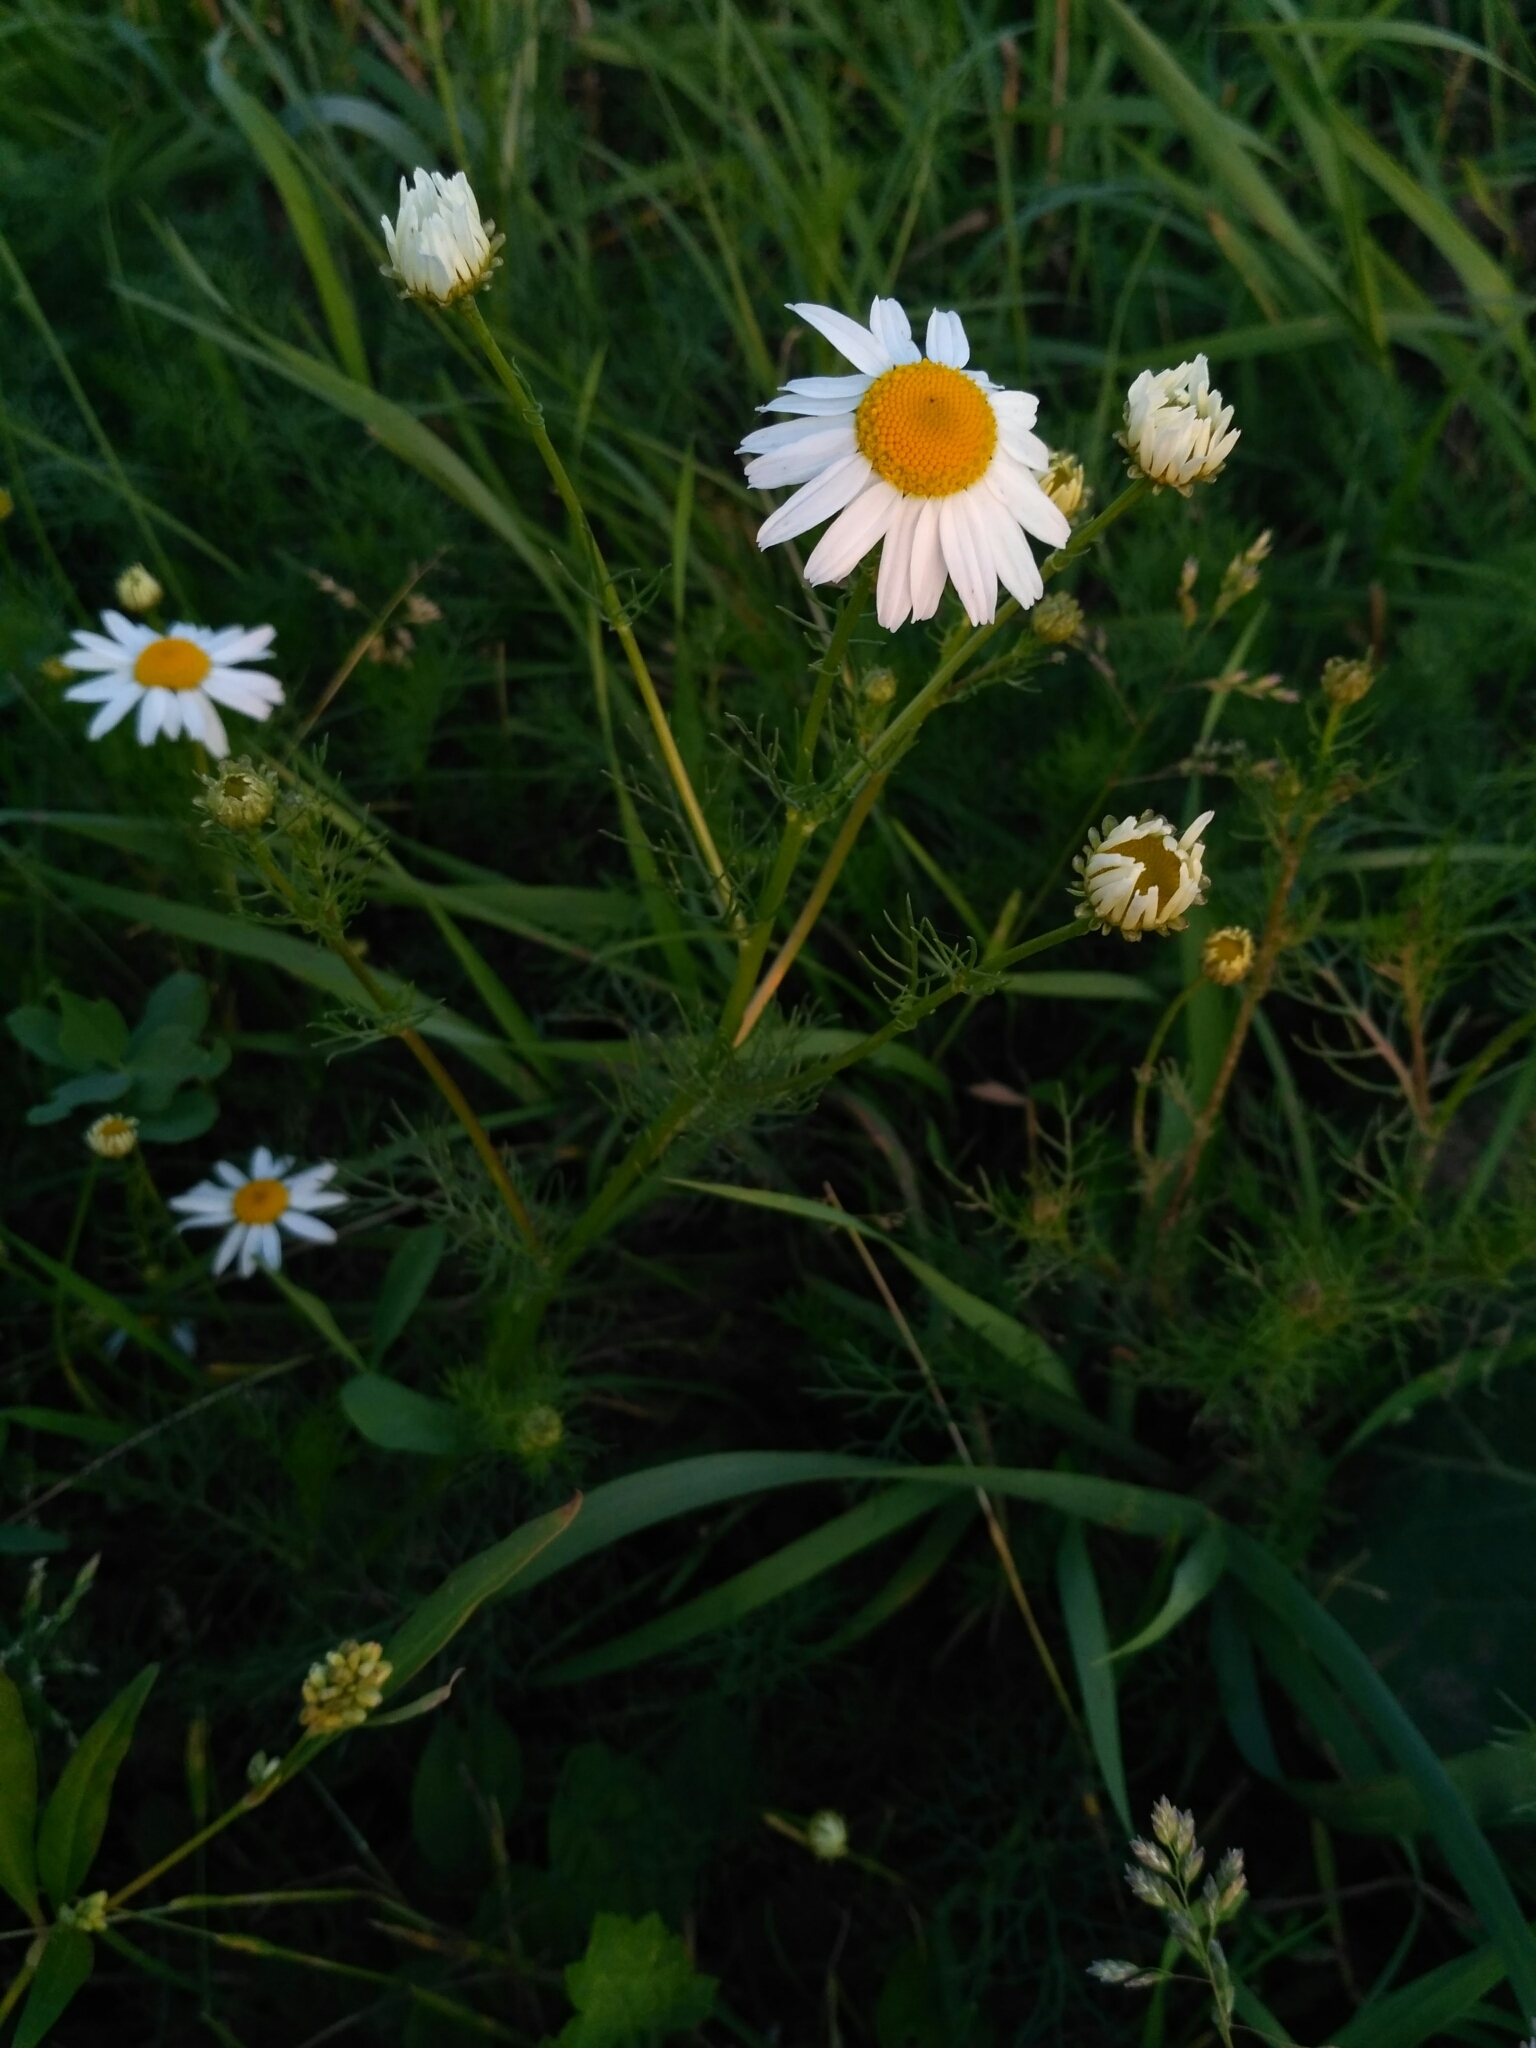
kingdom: Plantae
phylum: Tracheophyta
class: Magnoliopsida
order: Asterales
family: Asteraceae
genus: Tripleurospermum
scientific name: Tripleurospermum inodorum
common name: Scentless mayweed
